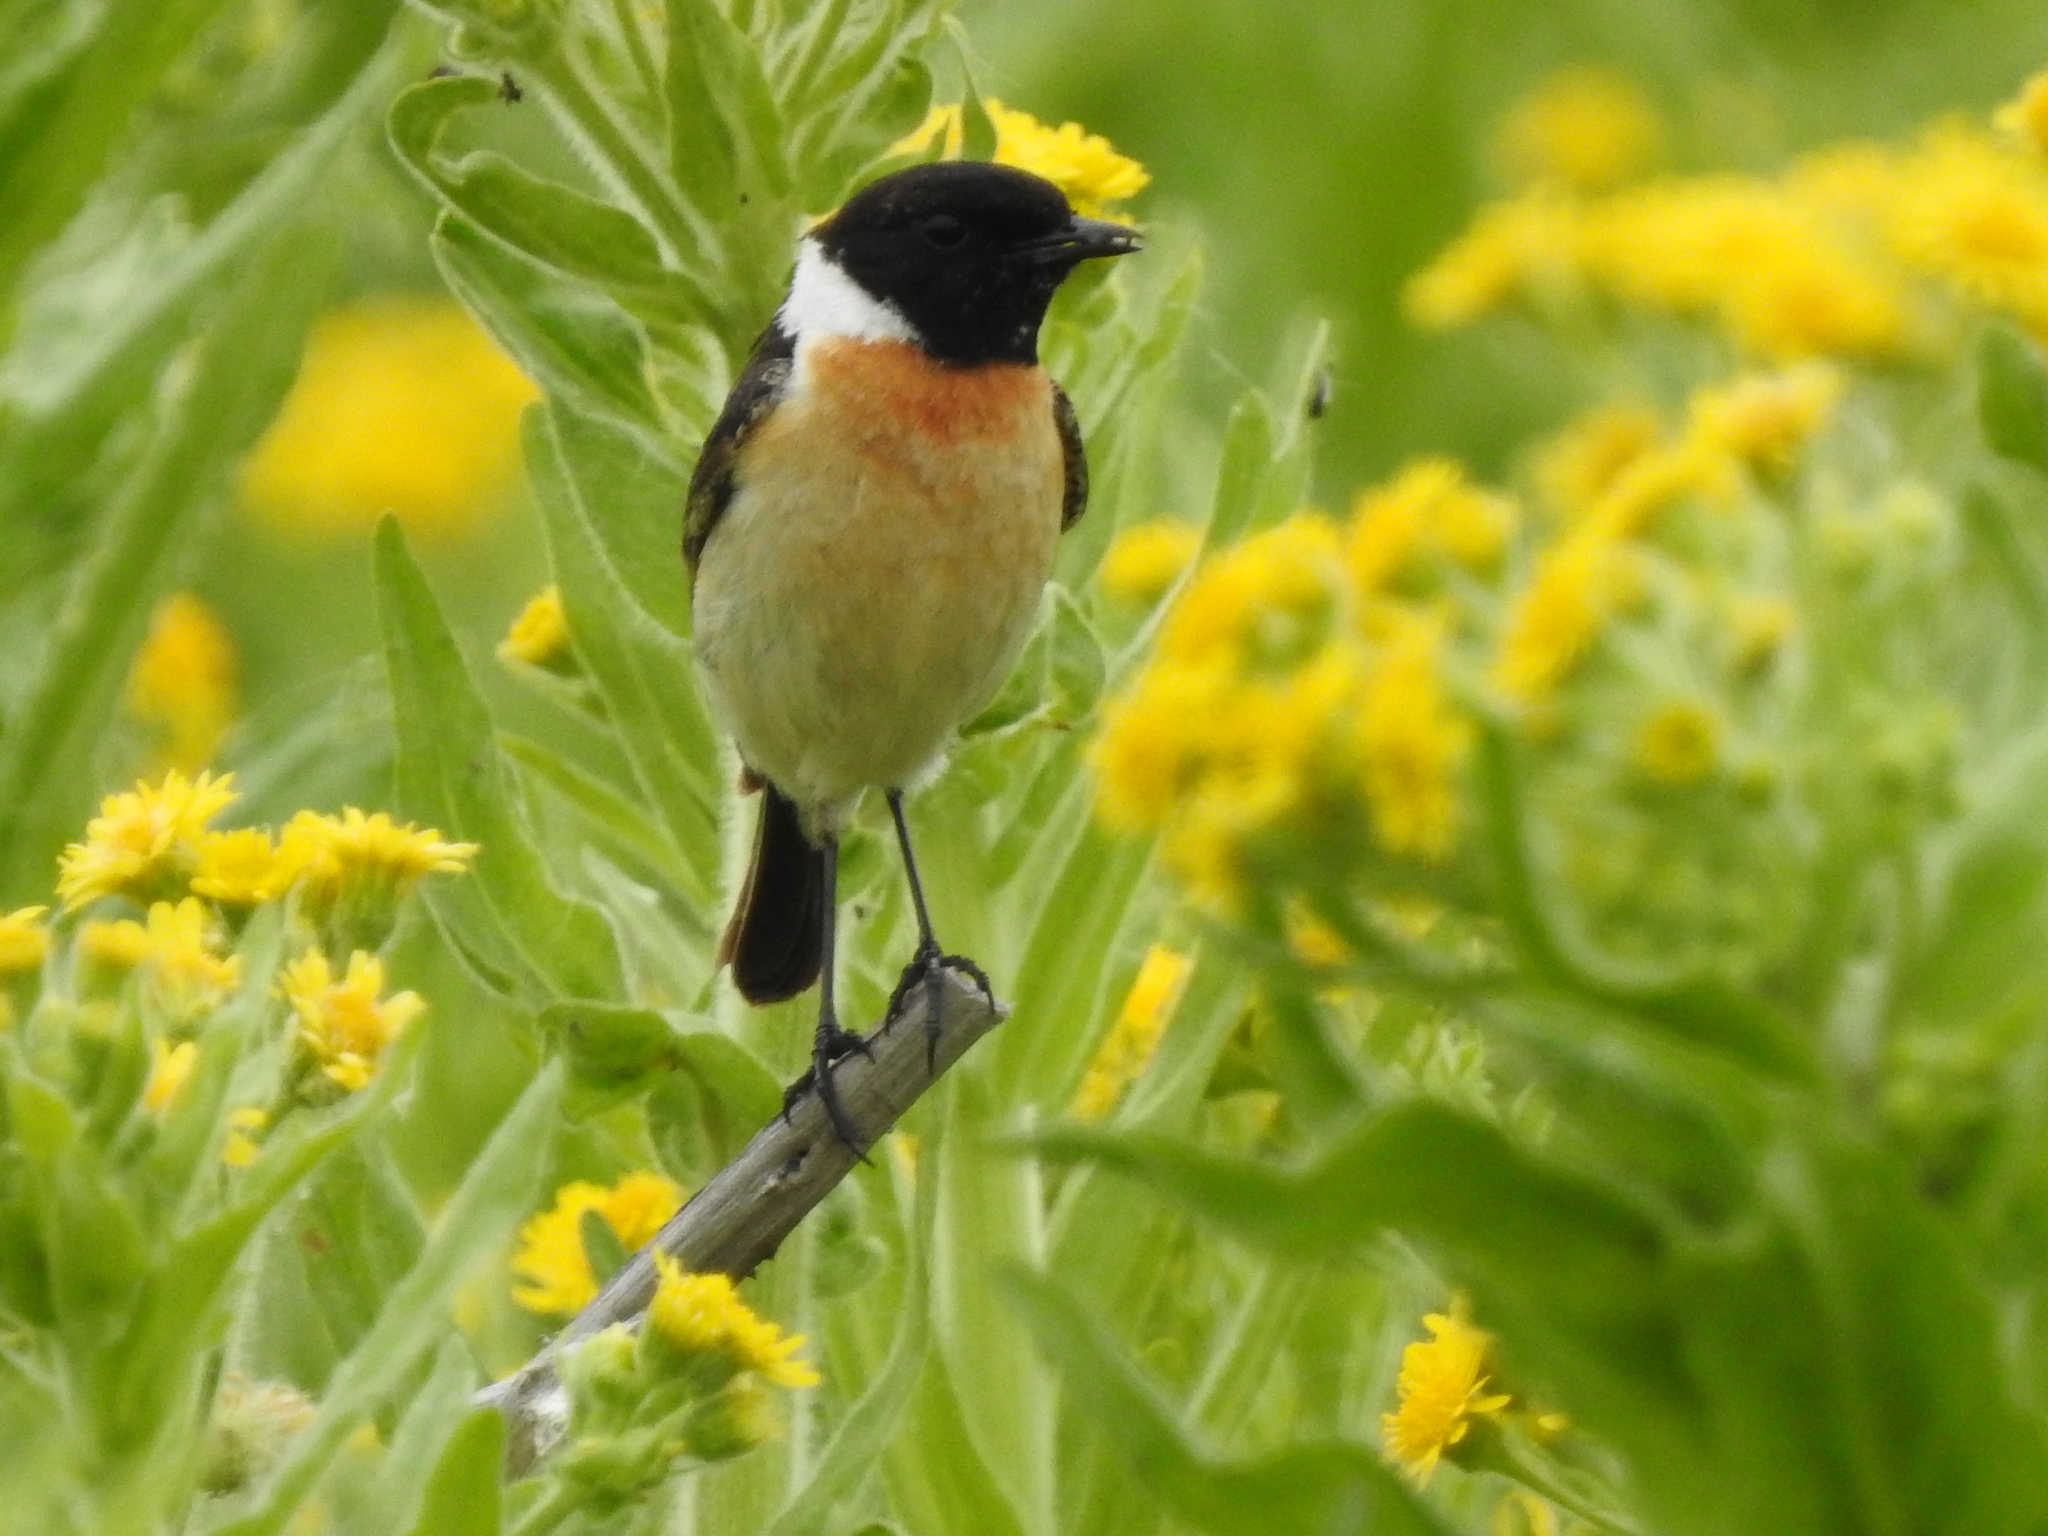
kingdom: Animalia
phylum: Chordata
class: Aves
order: Passeriformes
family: Muscicapidae
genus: Saxicola
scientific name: Saxicola maurus
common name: Siberian stonechat
